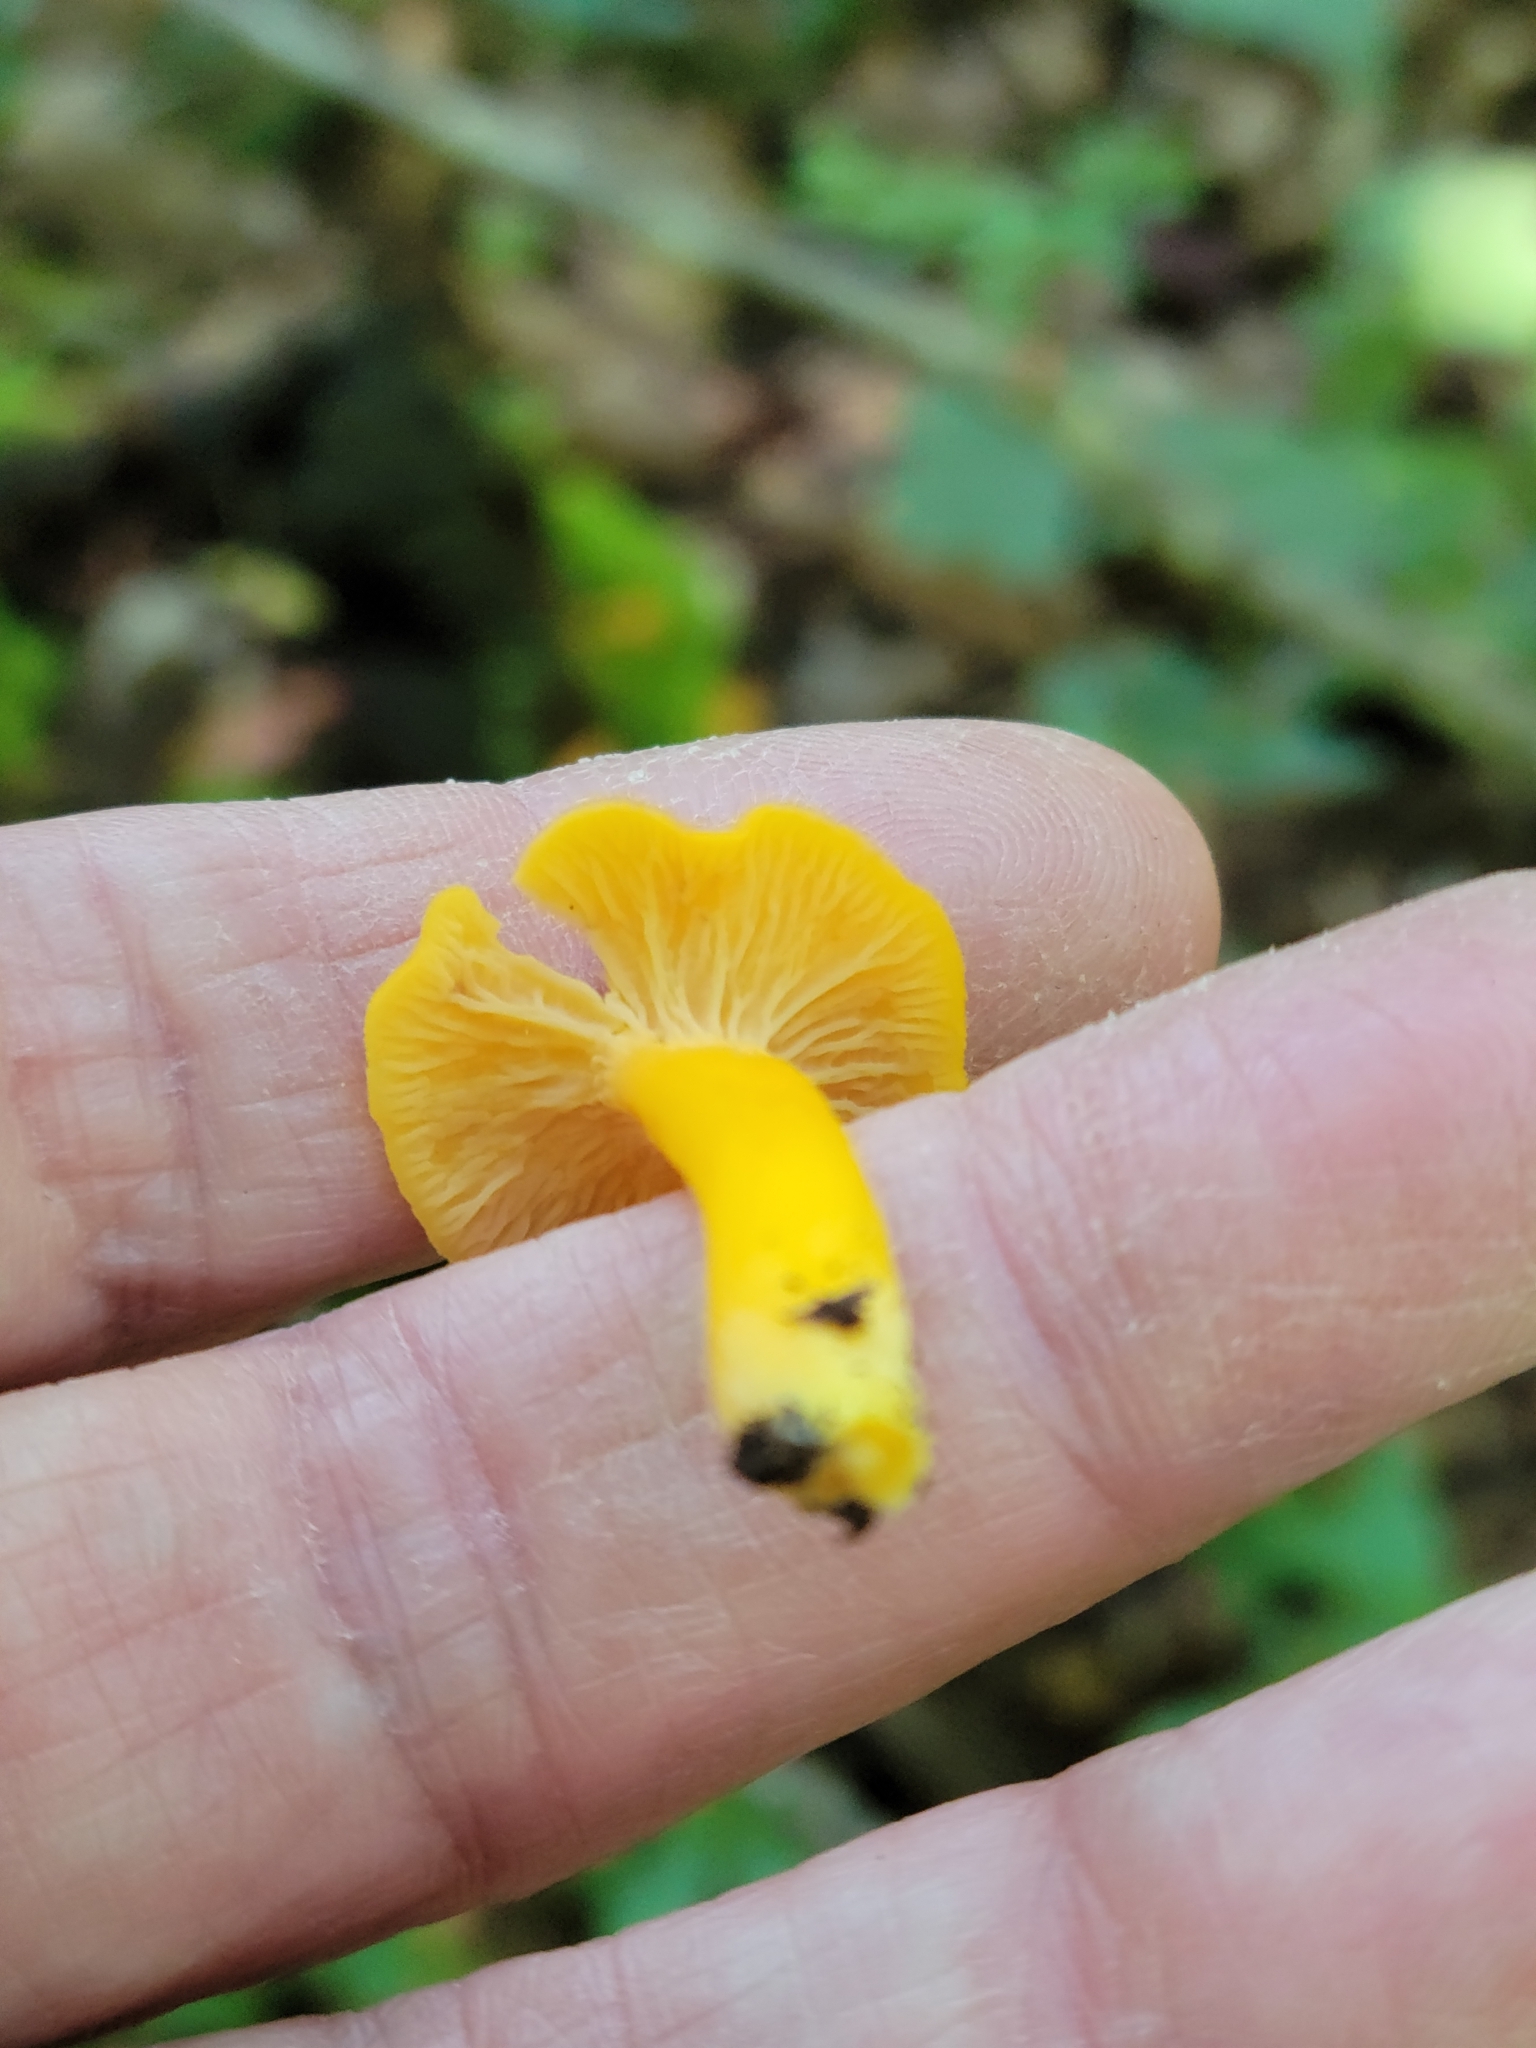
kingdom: Fungi
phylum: Basidiomycota
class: Agaricomycetes
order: Cantharellales
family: Hydnaceae
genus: Craterellus
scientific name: Craterellus ignicolor
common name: Flame chanterelle
